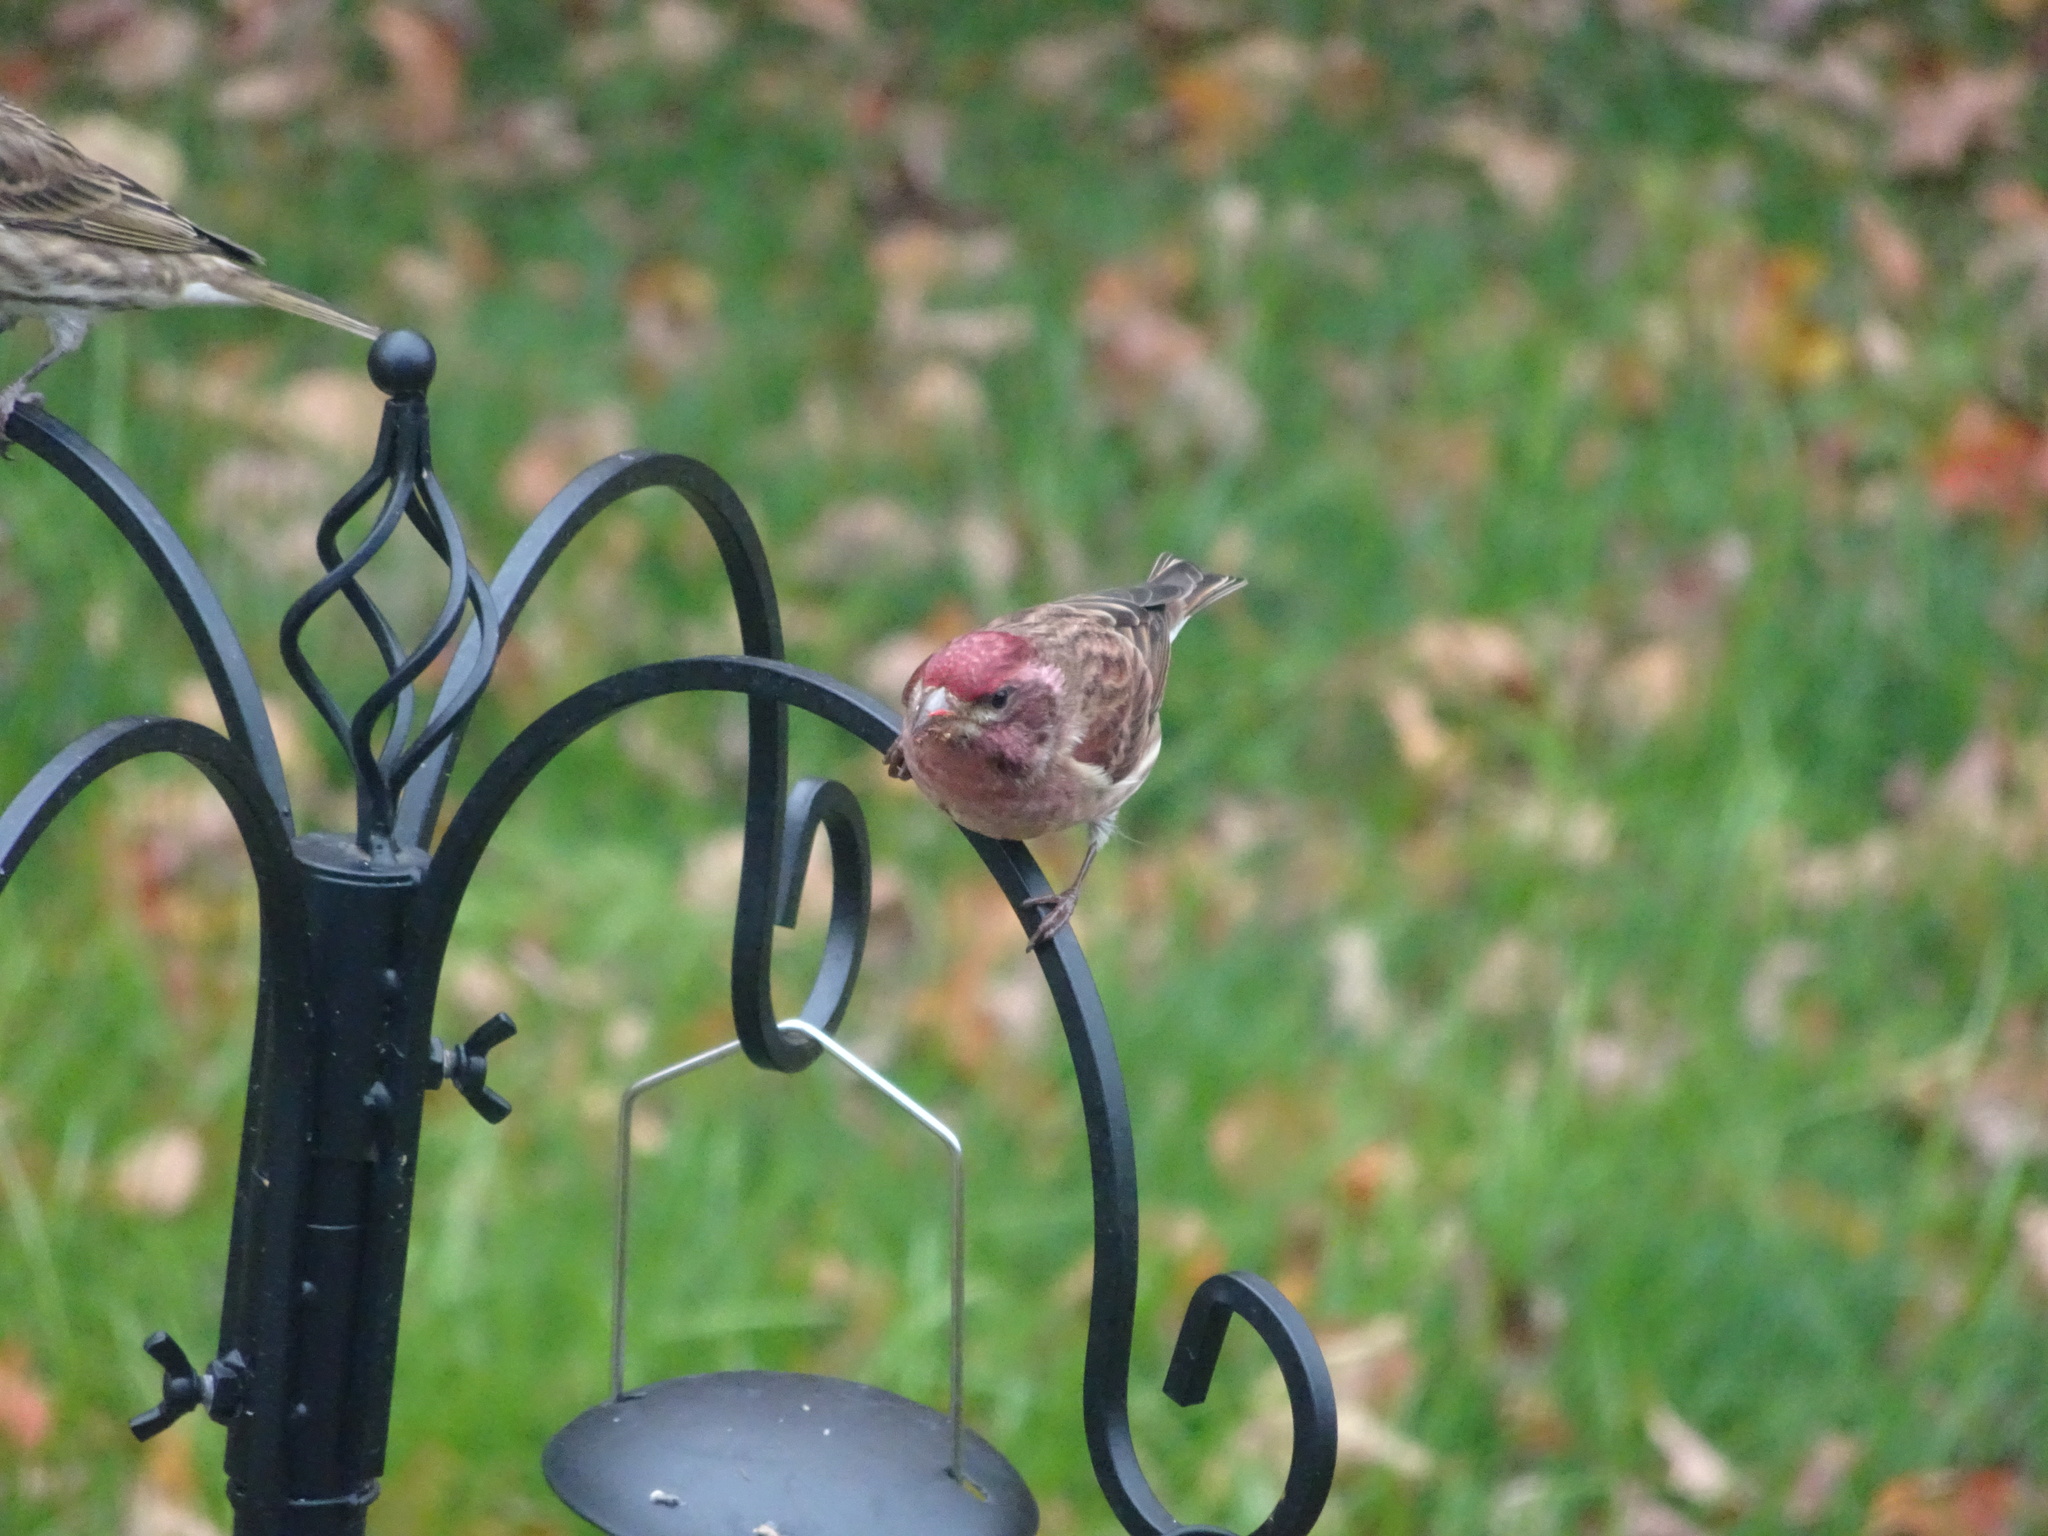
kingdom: Animalia
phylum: Chordata
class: Aves
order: Passeriformes
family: Fringillidae
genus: Haemorhous
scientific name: Haemorhous purpureus
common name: Purple finch
